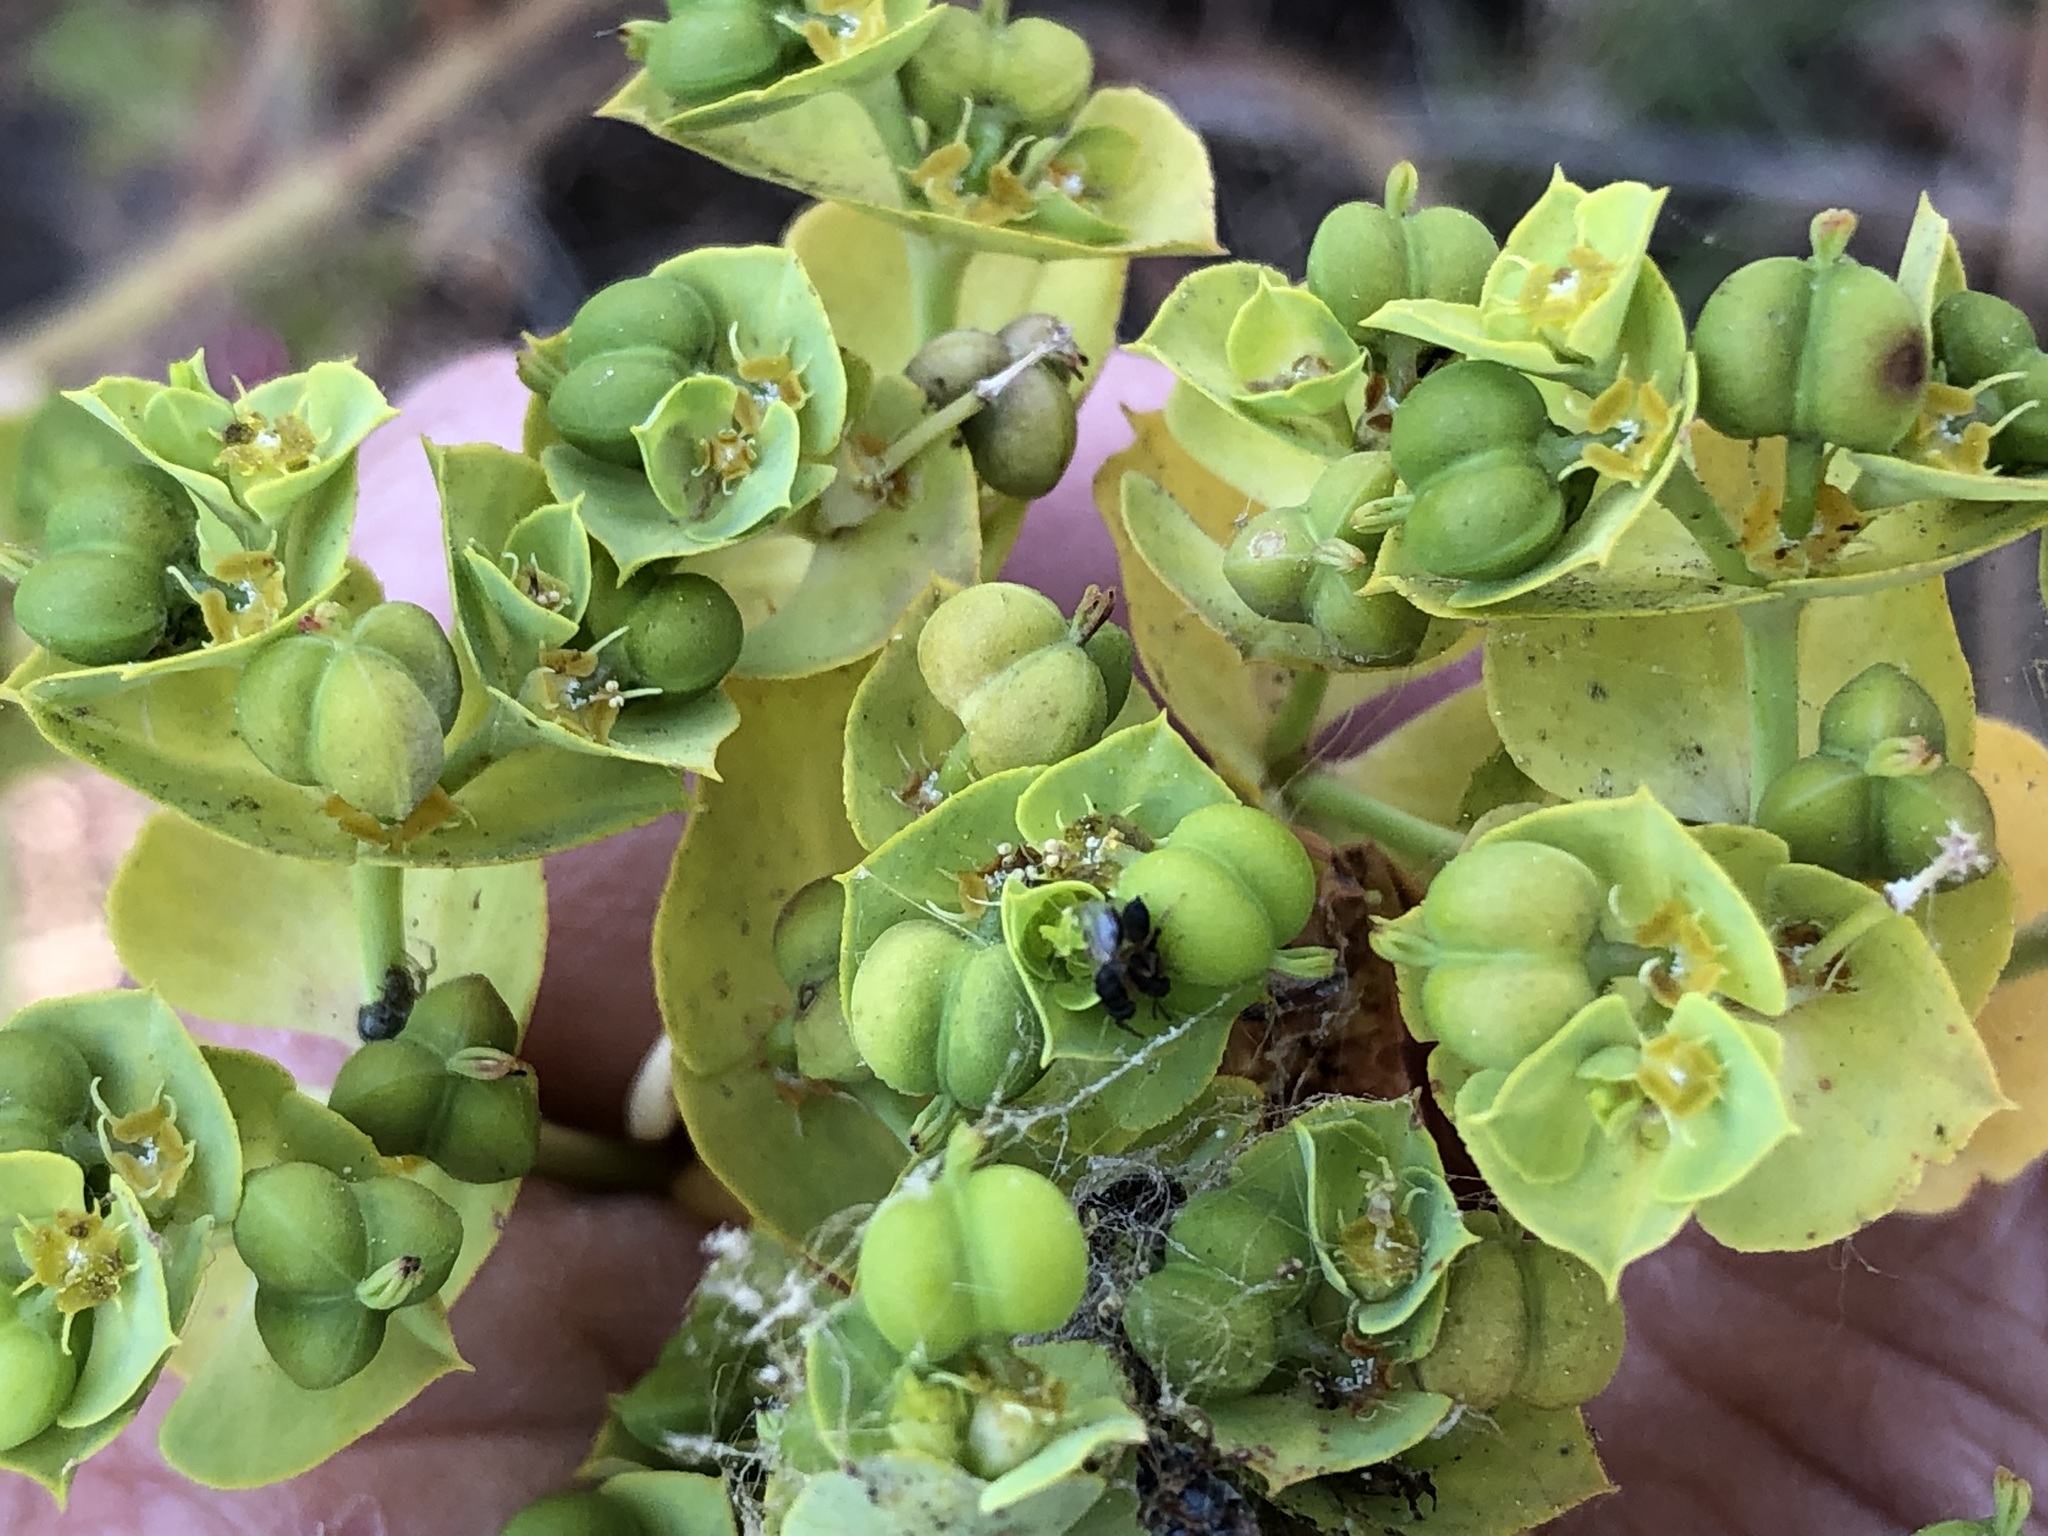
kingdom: Plantae
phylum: Tracheophyta
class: Magnoliopsida
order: Malpighiales
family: Euphorbiaceae
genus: Euphorbia
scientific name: Euphorbia terracina
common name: Geraldton carnation weed
